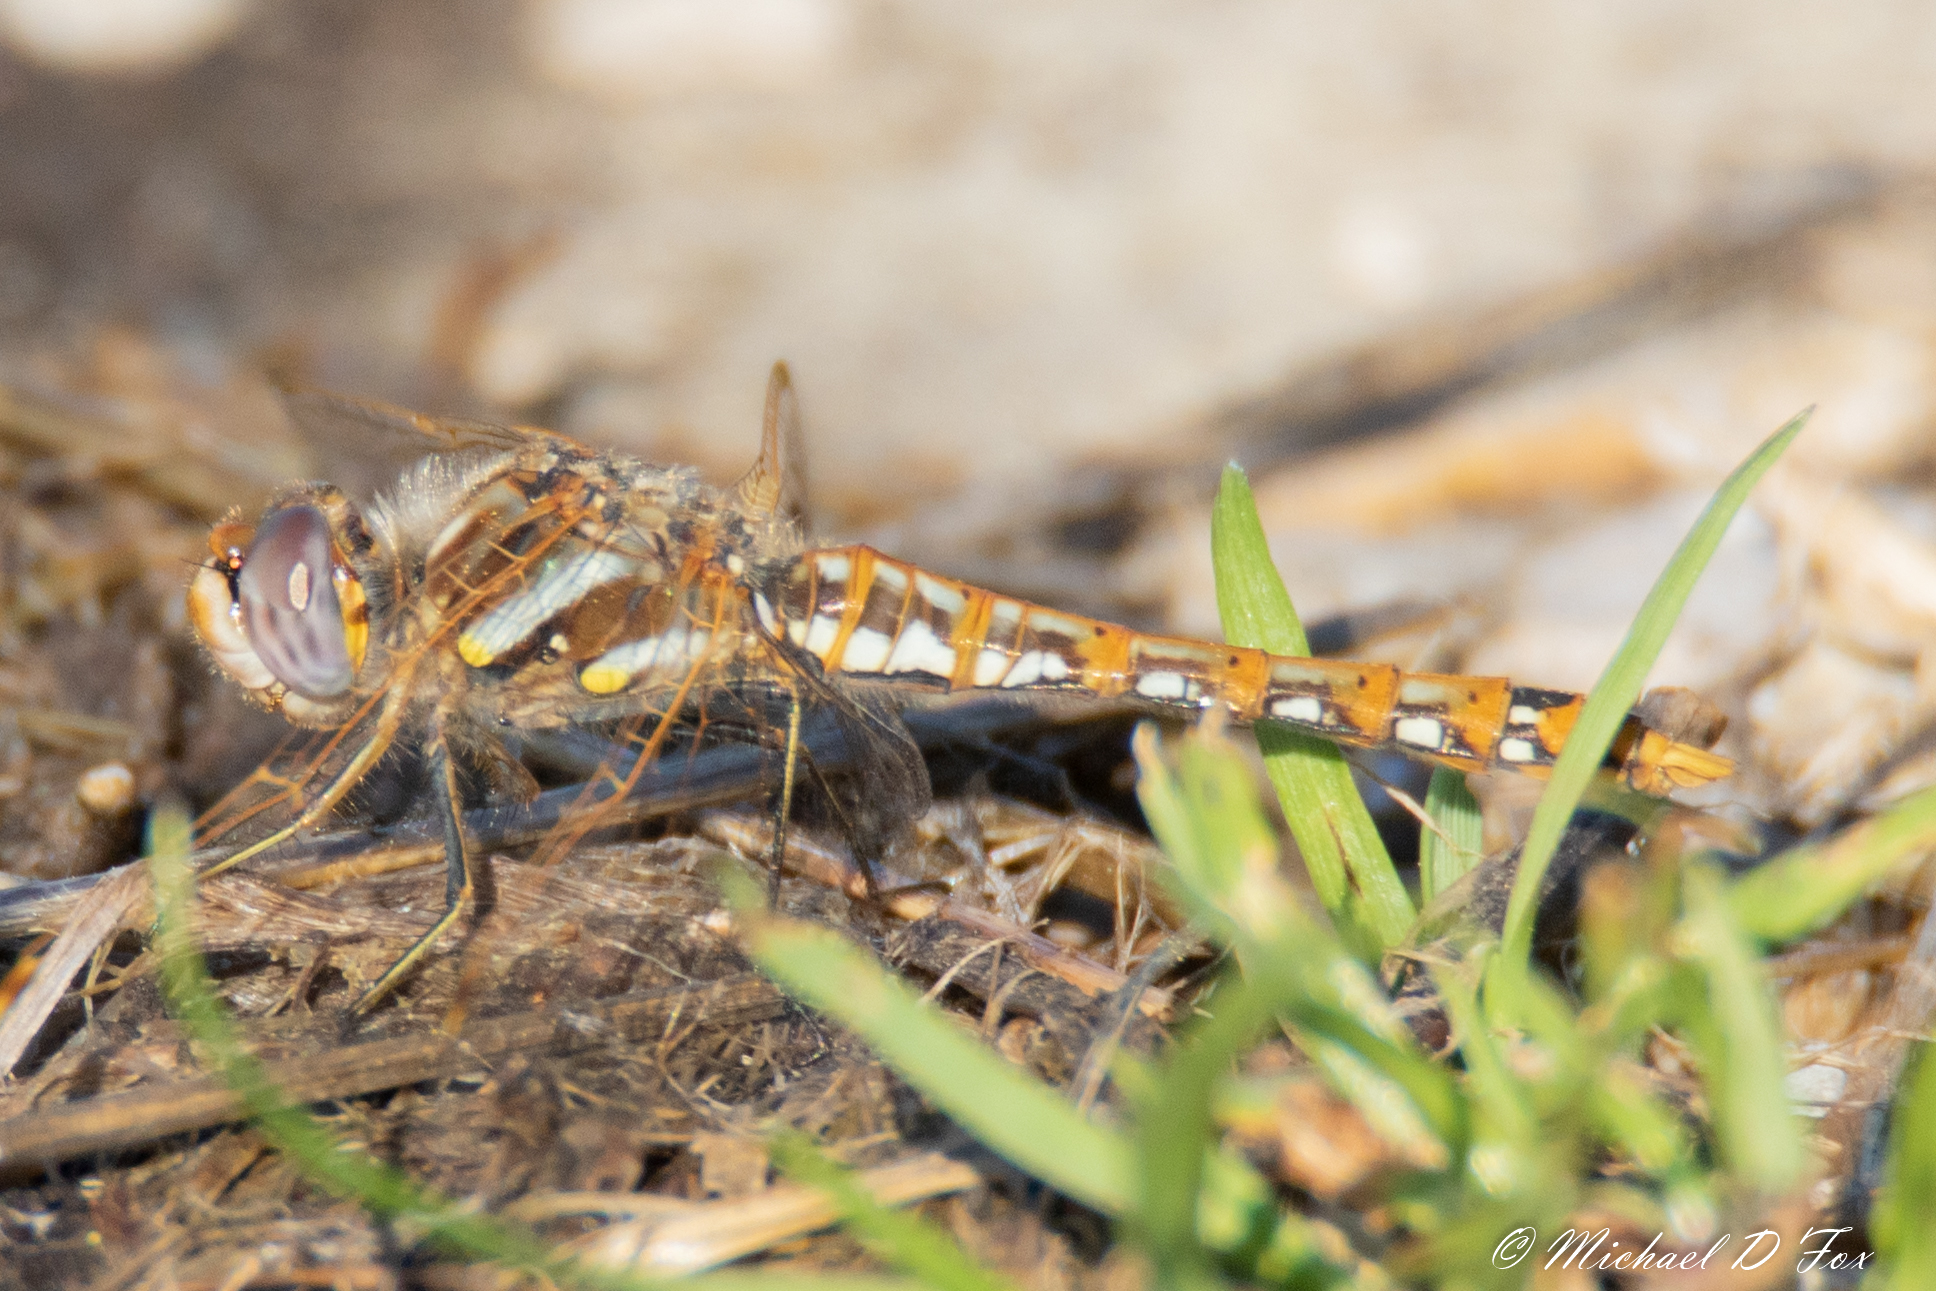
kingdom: Animalia
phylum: Arthropoda
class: Insecta
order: Odonata
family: Libellulidae
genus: Sympetrum
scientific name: Sympetrum corruptum
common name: Variegated meadowhawk
